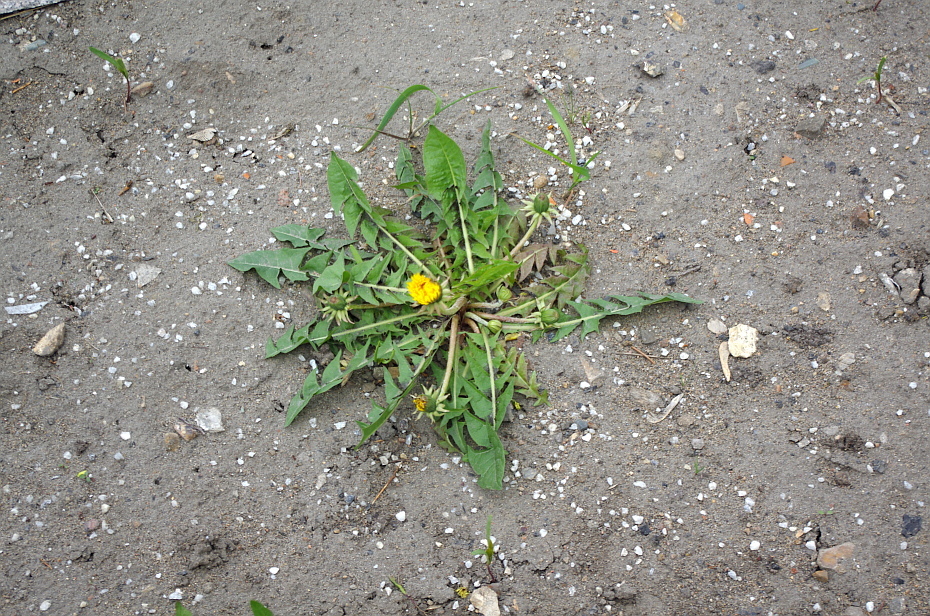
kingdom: Plantae
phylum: Tracheophyta
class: Magnoliopsida
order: Asterales
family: Asteraceae
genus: Taraxacum
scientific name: Taraxacum officinale
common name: Common dandelion
